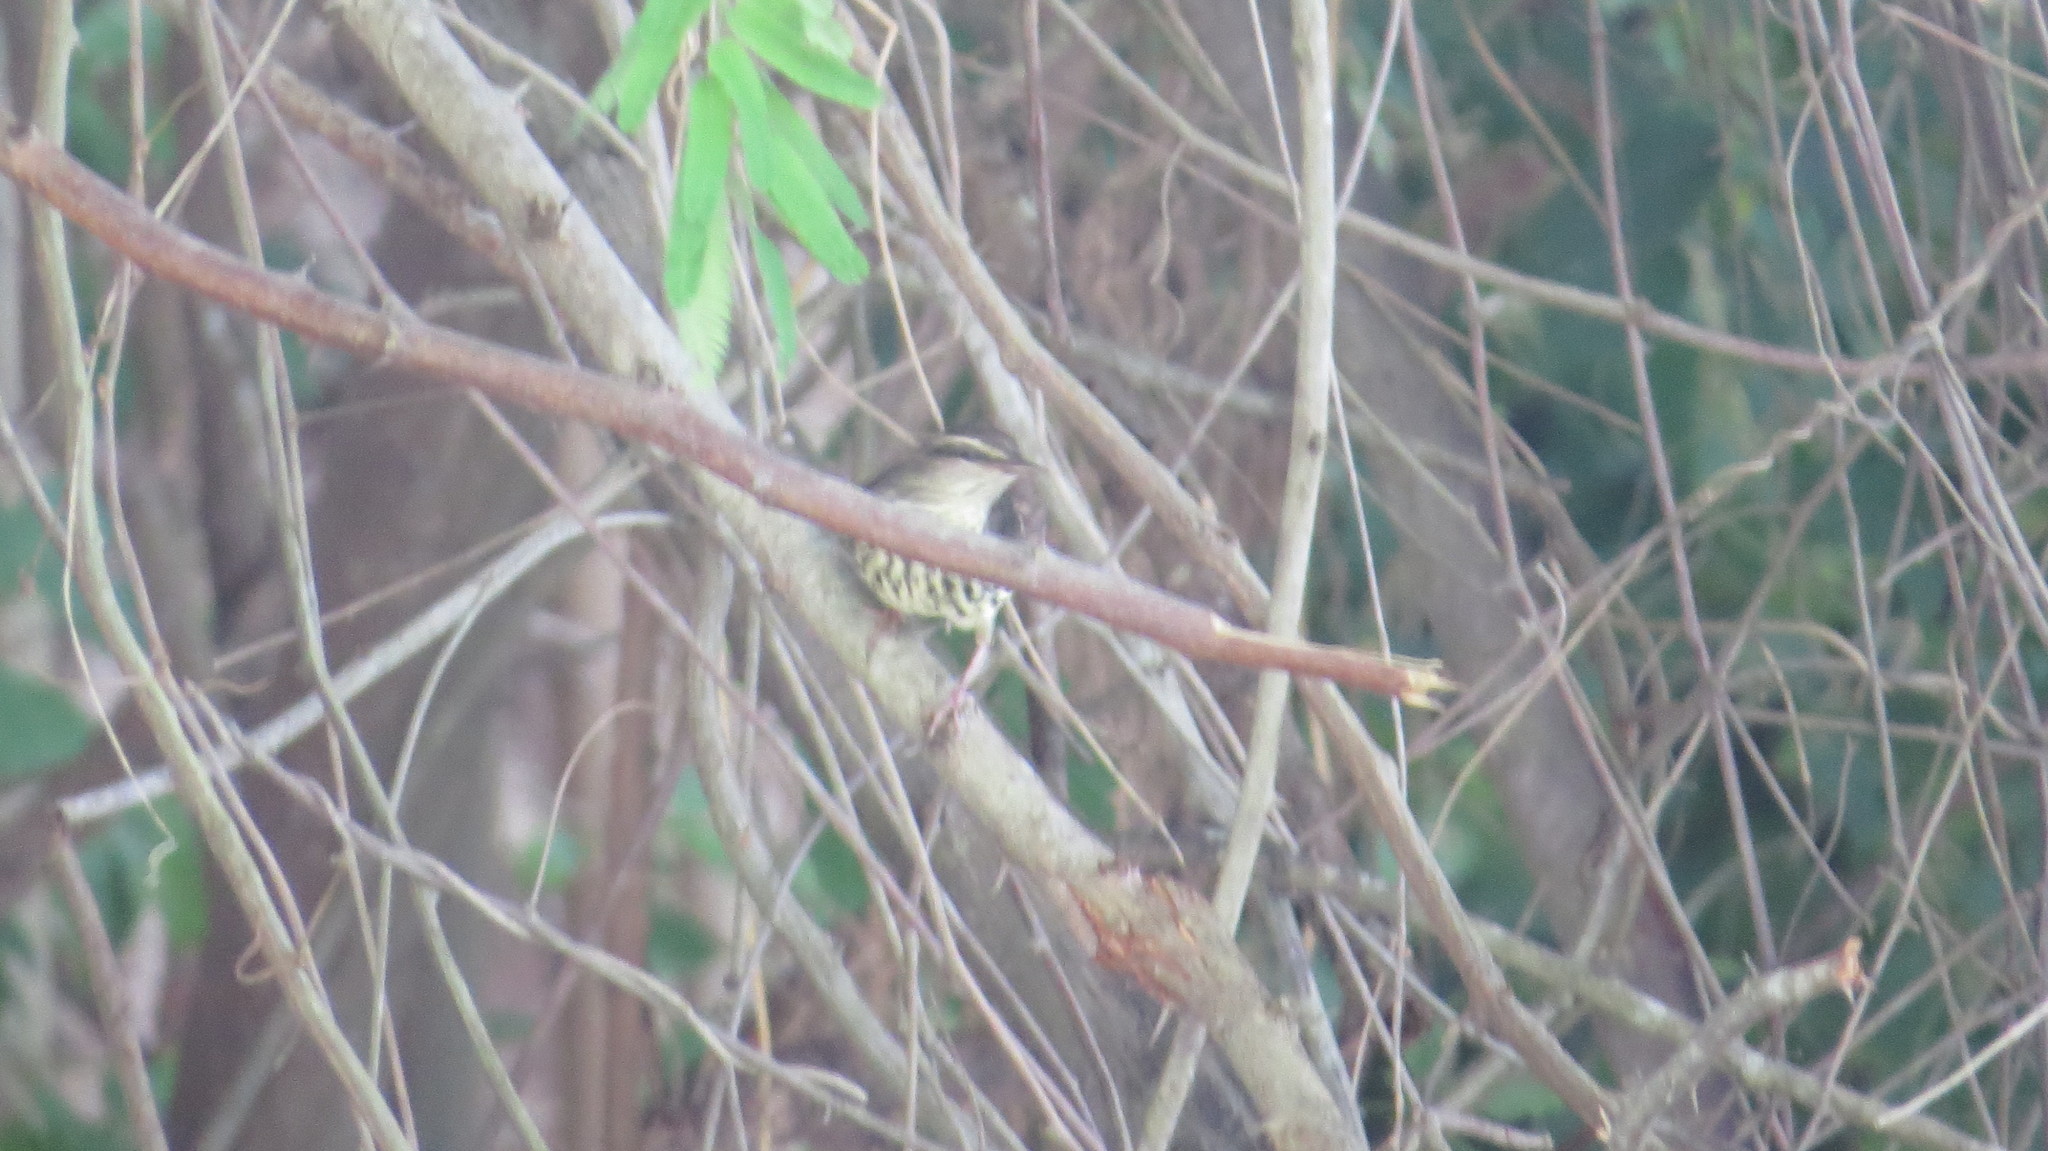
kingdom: Animalia
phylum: Chordata
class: Aves
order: Passeriformes
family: Parulidae
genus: Parkesia
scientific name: Parkesia noveboracensis
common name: Northern waterthrush
